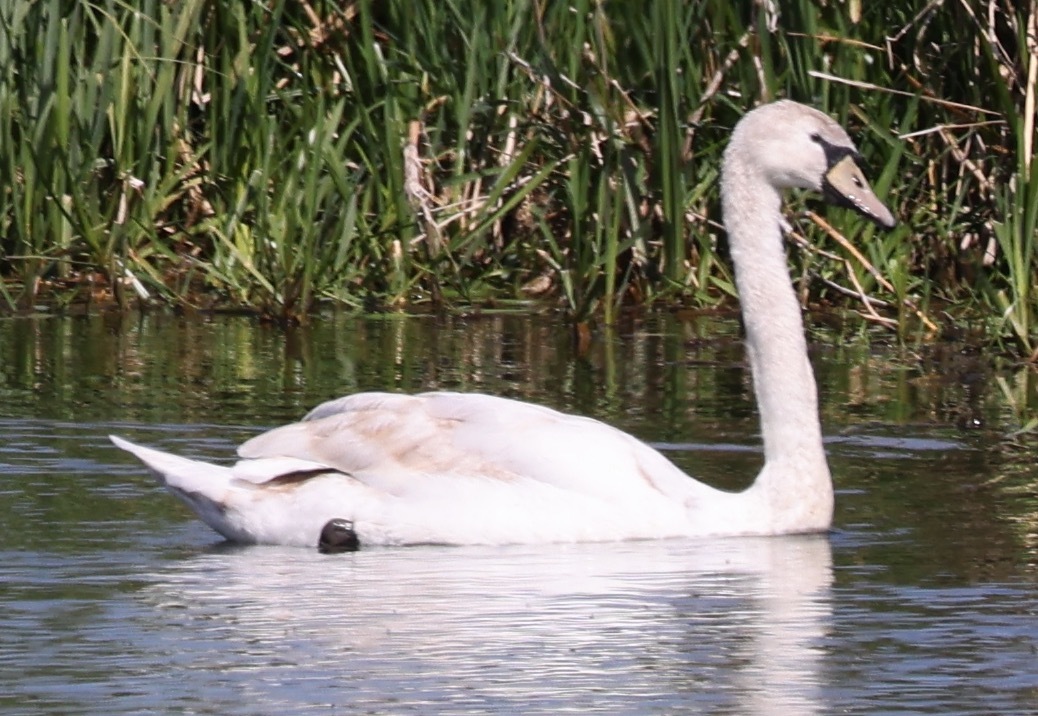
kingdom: Animalia
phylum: Chordata
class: Aves
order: Anseriformes
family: Anatidae
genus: Cygnus
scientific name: Cygnus olor
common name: Mute swan
